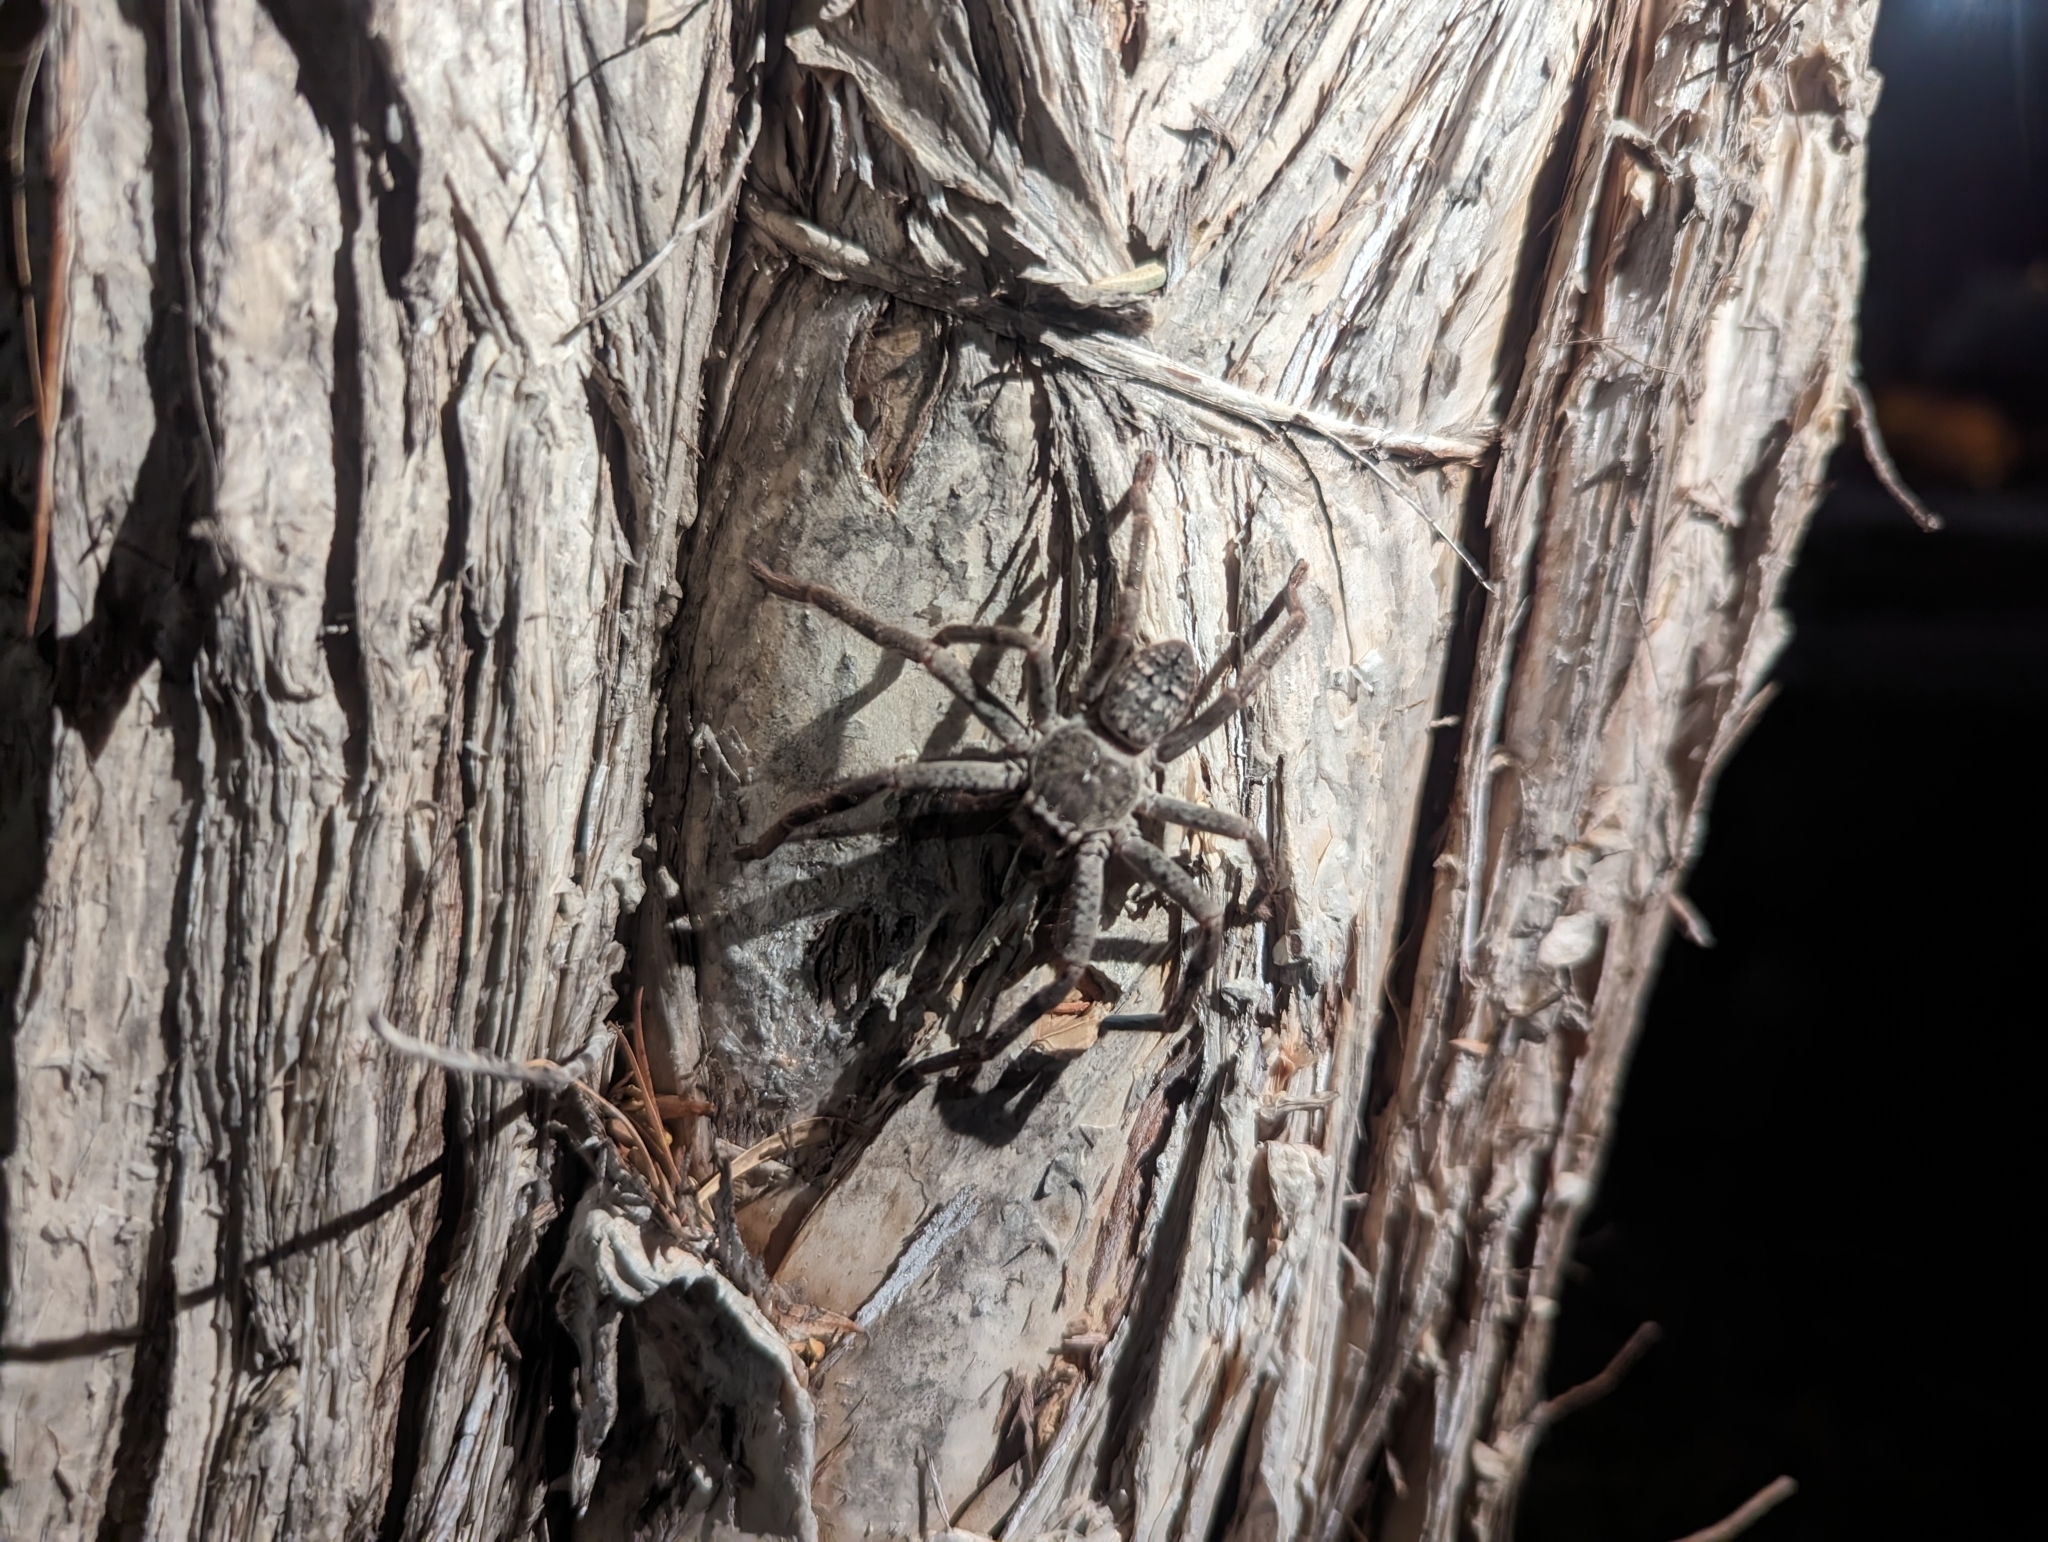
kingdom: Animalia
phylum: Arthropoda
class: Arachnida
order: Araneae
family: Sparassidae
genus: Isopedella
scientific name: Isopedella victorialis
